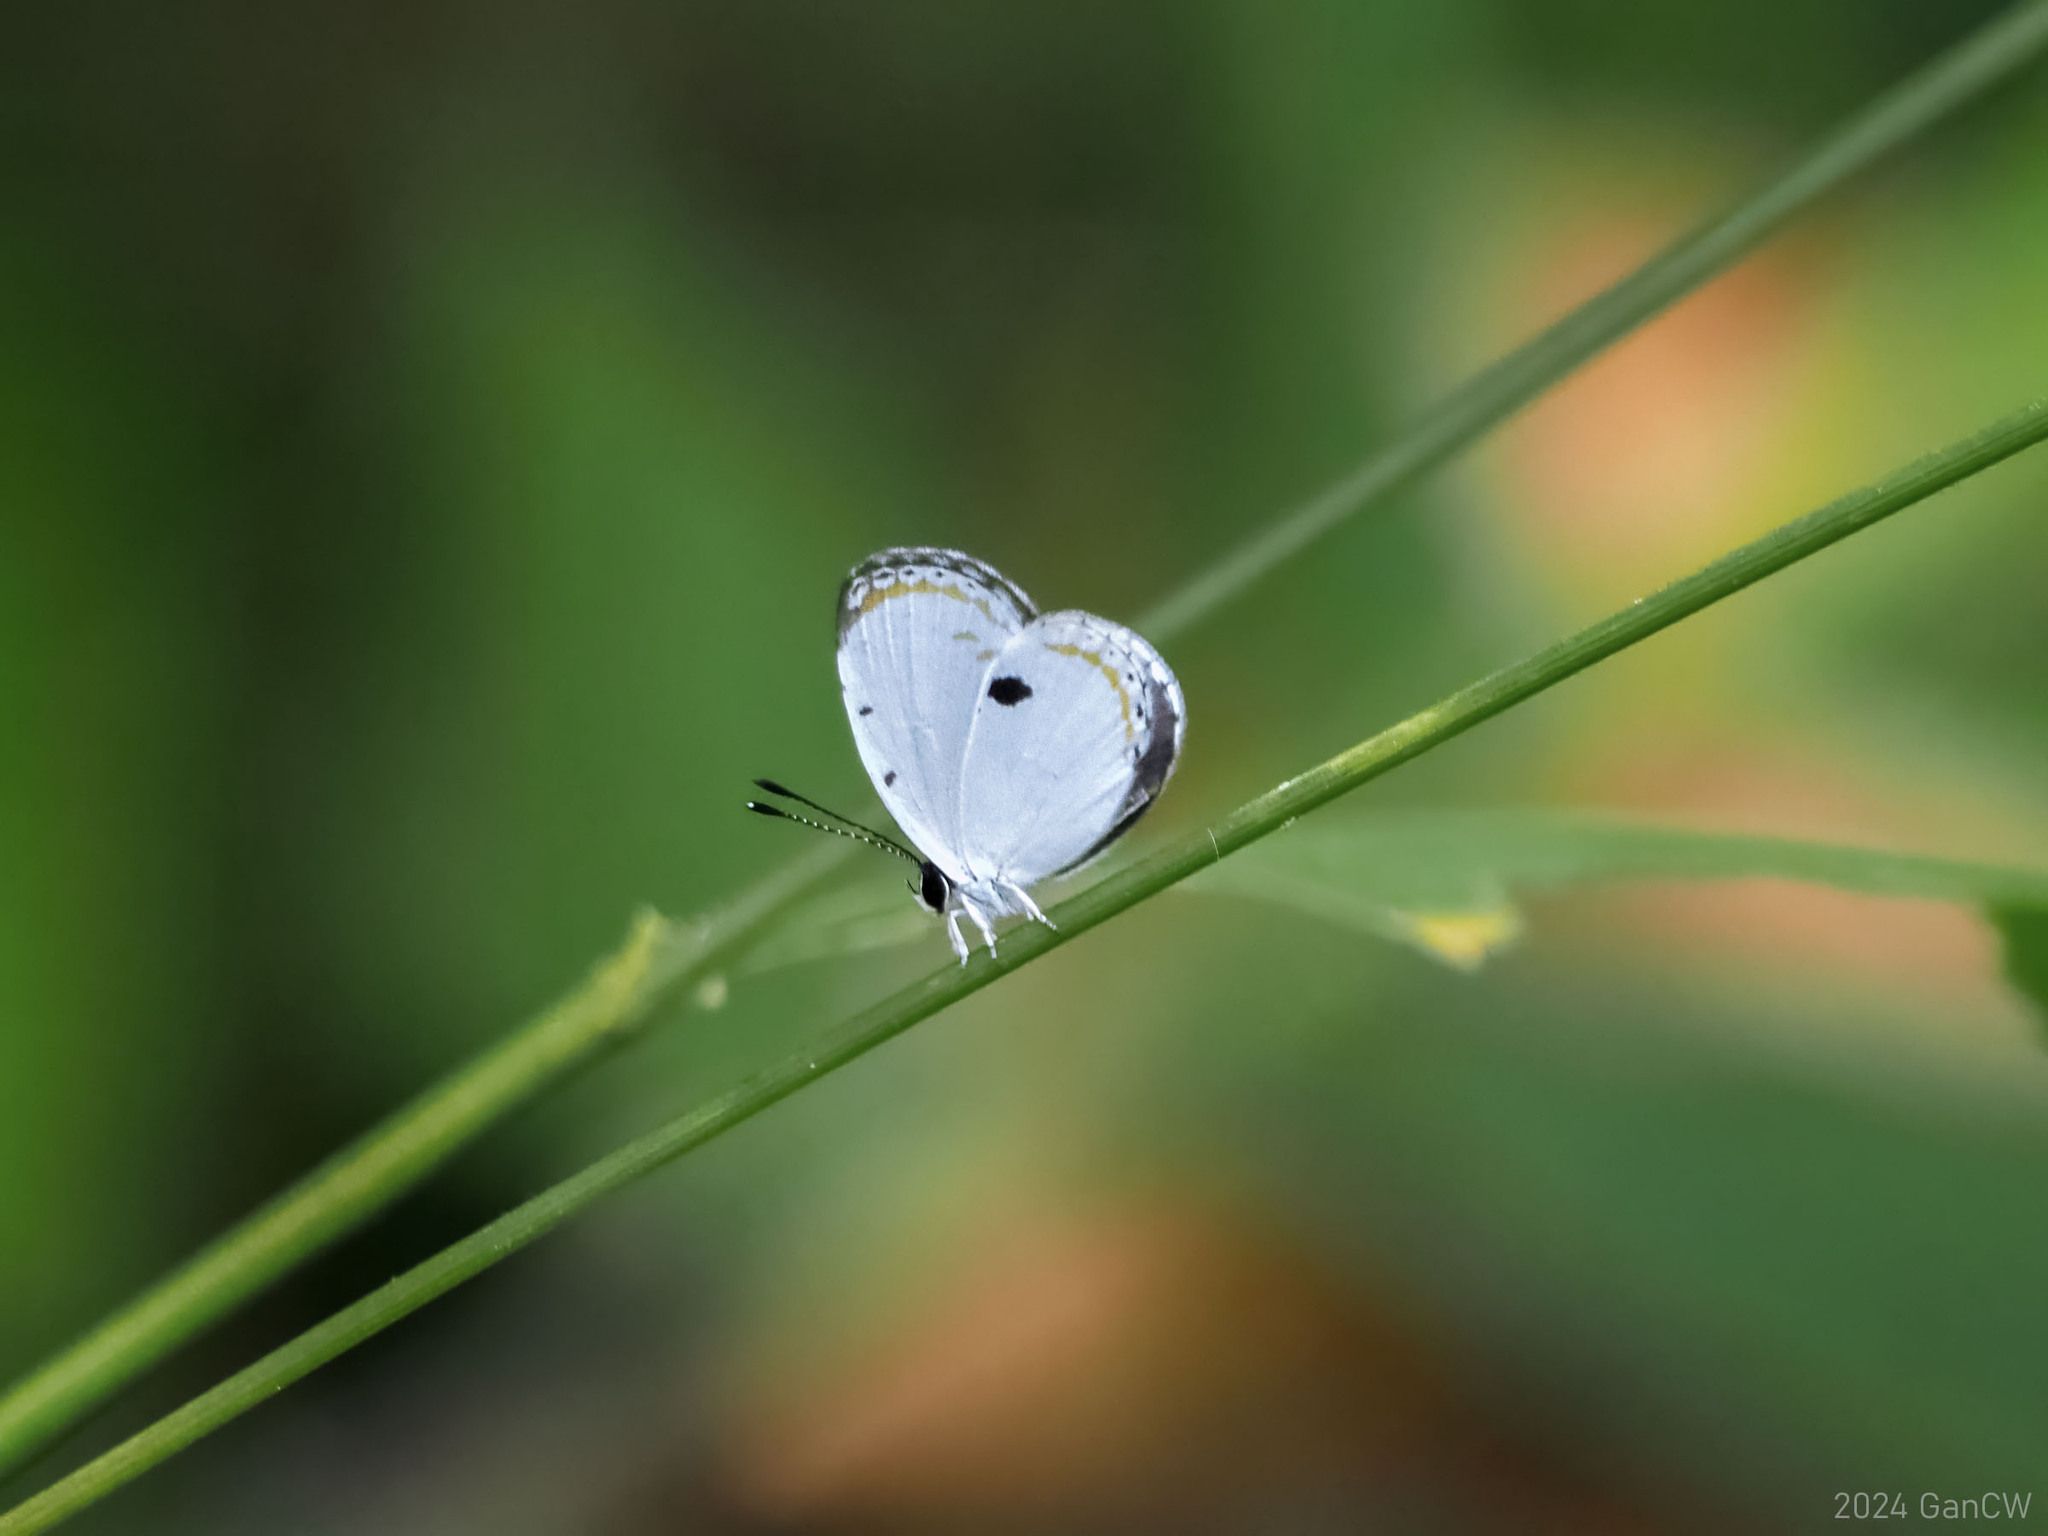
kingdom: Animalia
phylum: Arthropoda
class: Insecta
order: Lepidoptera
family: Lycaenidae
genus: Pithecops
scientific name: Pithecops corvus
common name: Forest quaker
